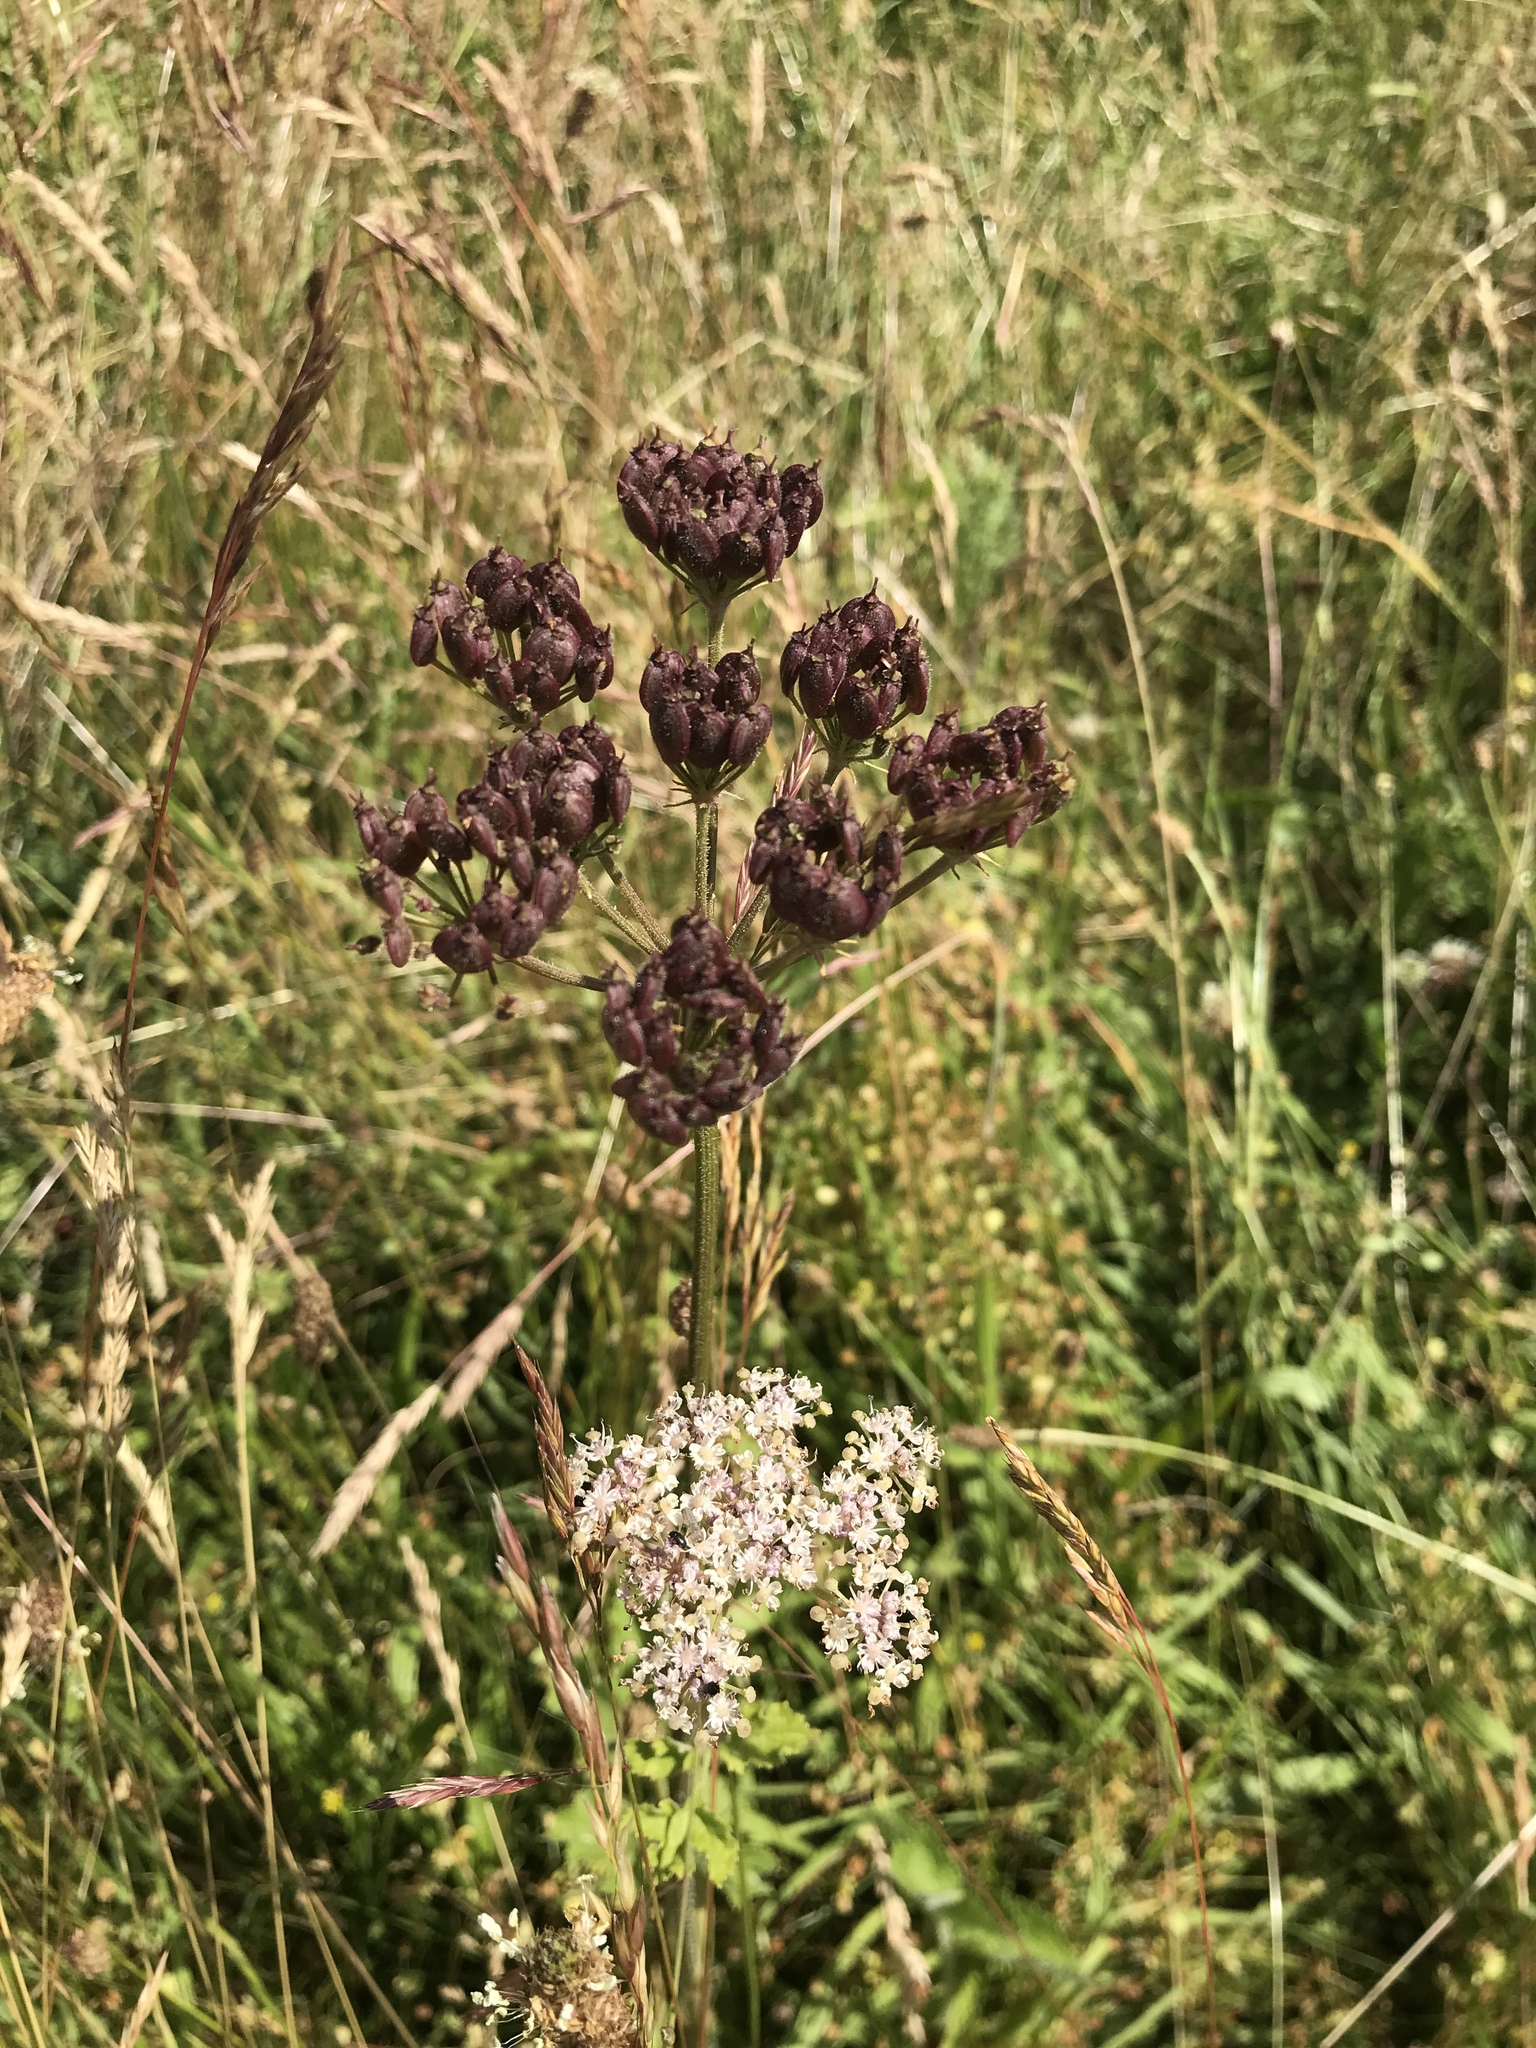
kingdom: Plantae
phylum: Tracheophyta
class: Magnoliopsida
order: Apiales
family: Apiaceae
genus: Heracleum
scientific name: Heracleum sphondylium
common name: Hogweed
